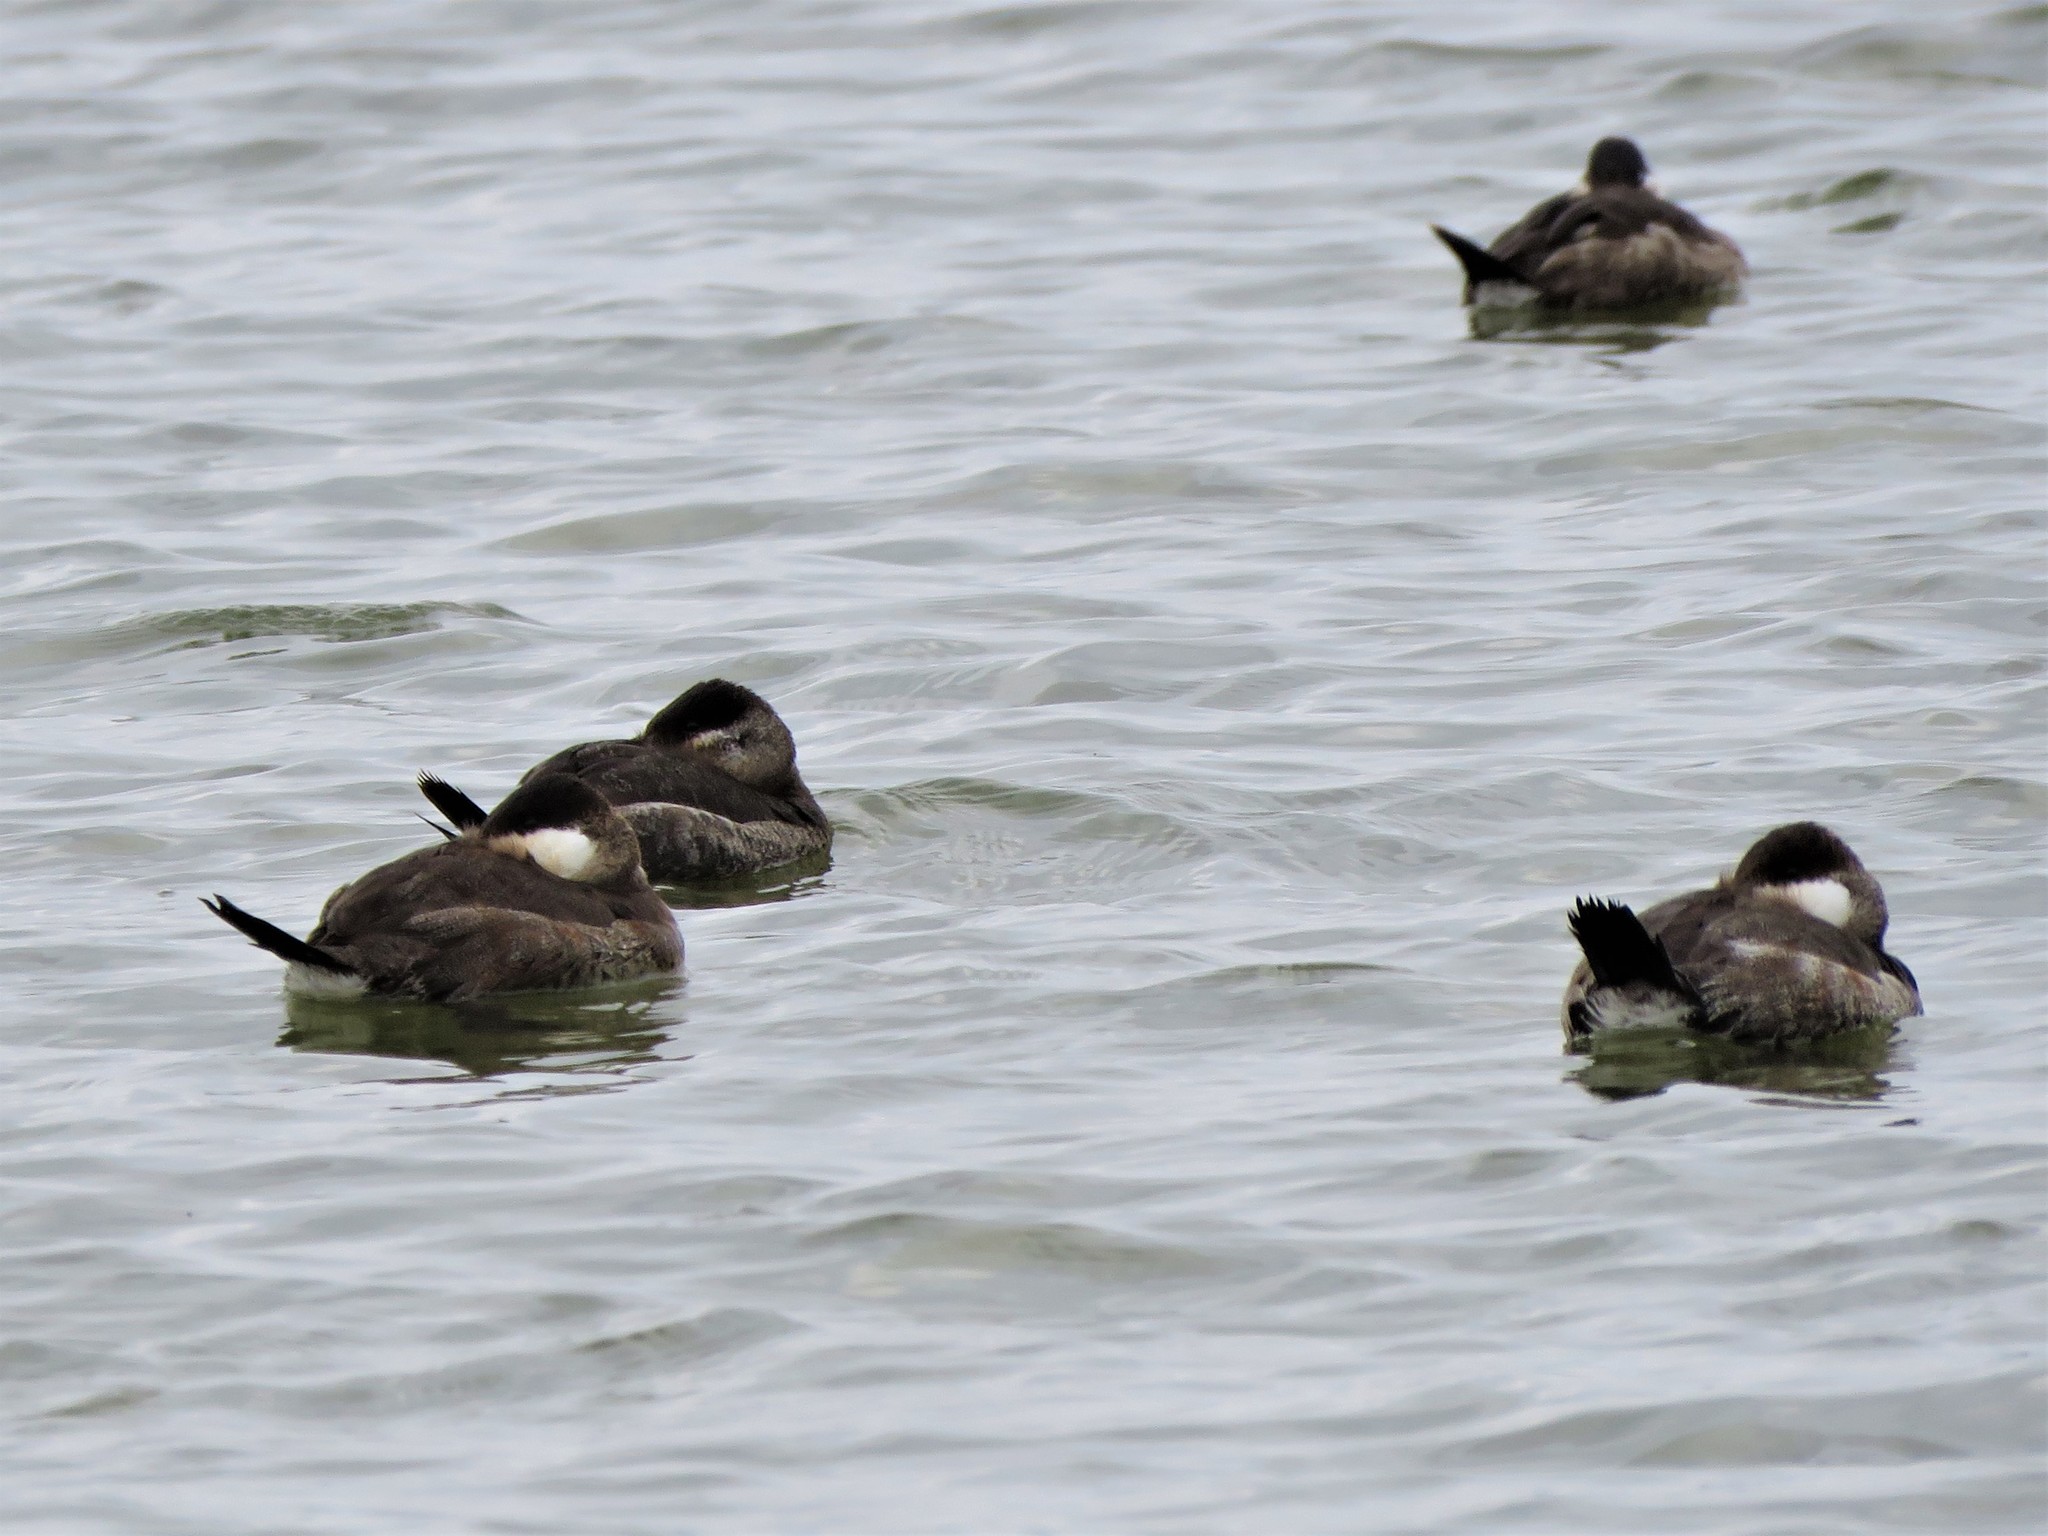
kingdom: Animalia
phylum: Chordata
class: Aves
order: Anseriformes
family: Anatidae
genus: Oxyura
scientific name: Oxyura jamaicensis
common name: Ruddy duck
